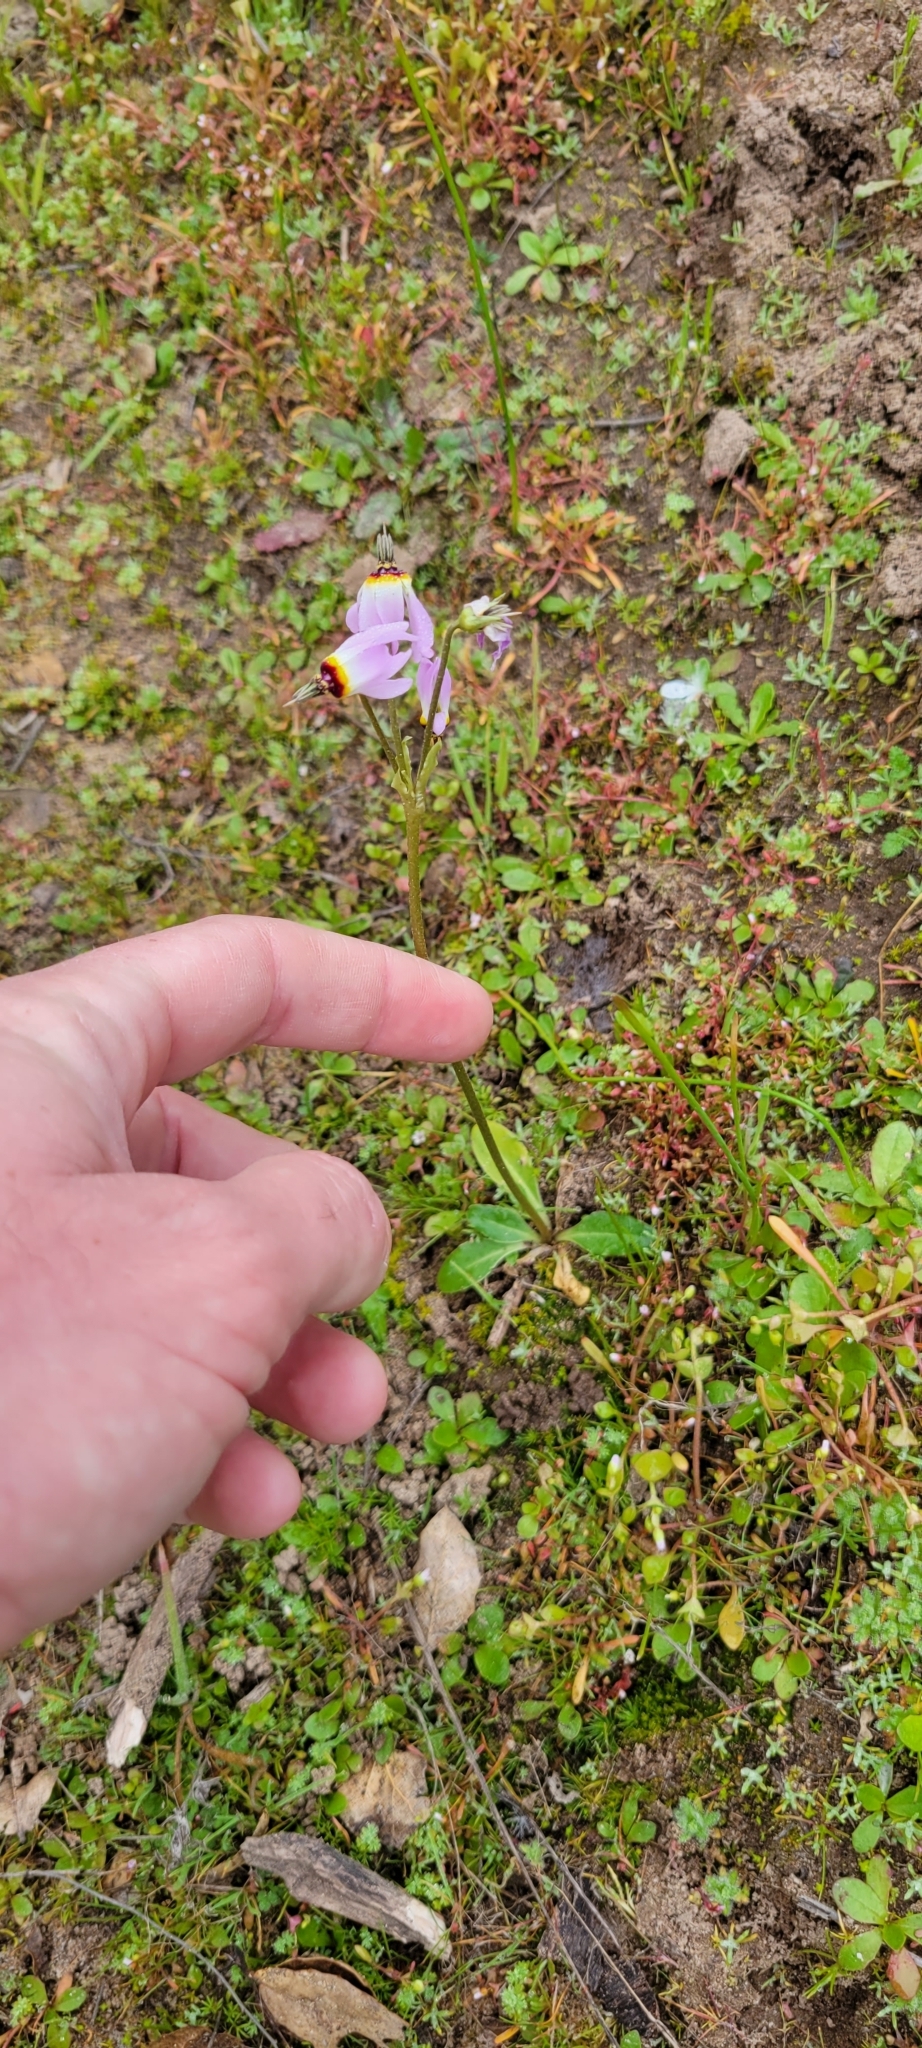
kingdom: Plantae
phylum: Tracheophyta
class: Magnoliopsida
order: Ericales
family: Primulaceae
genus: Dodecatheon
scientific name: Dodecatheon clevelandii
